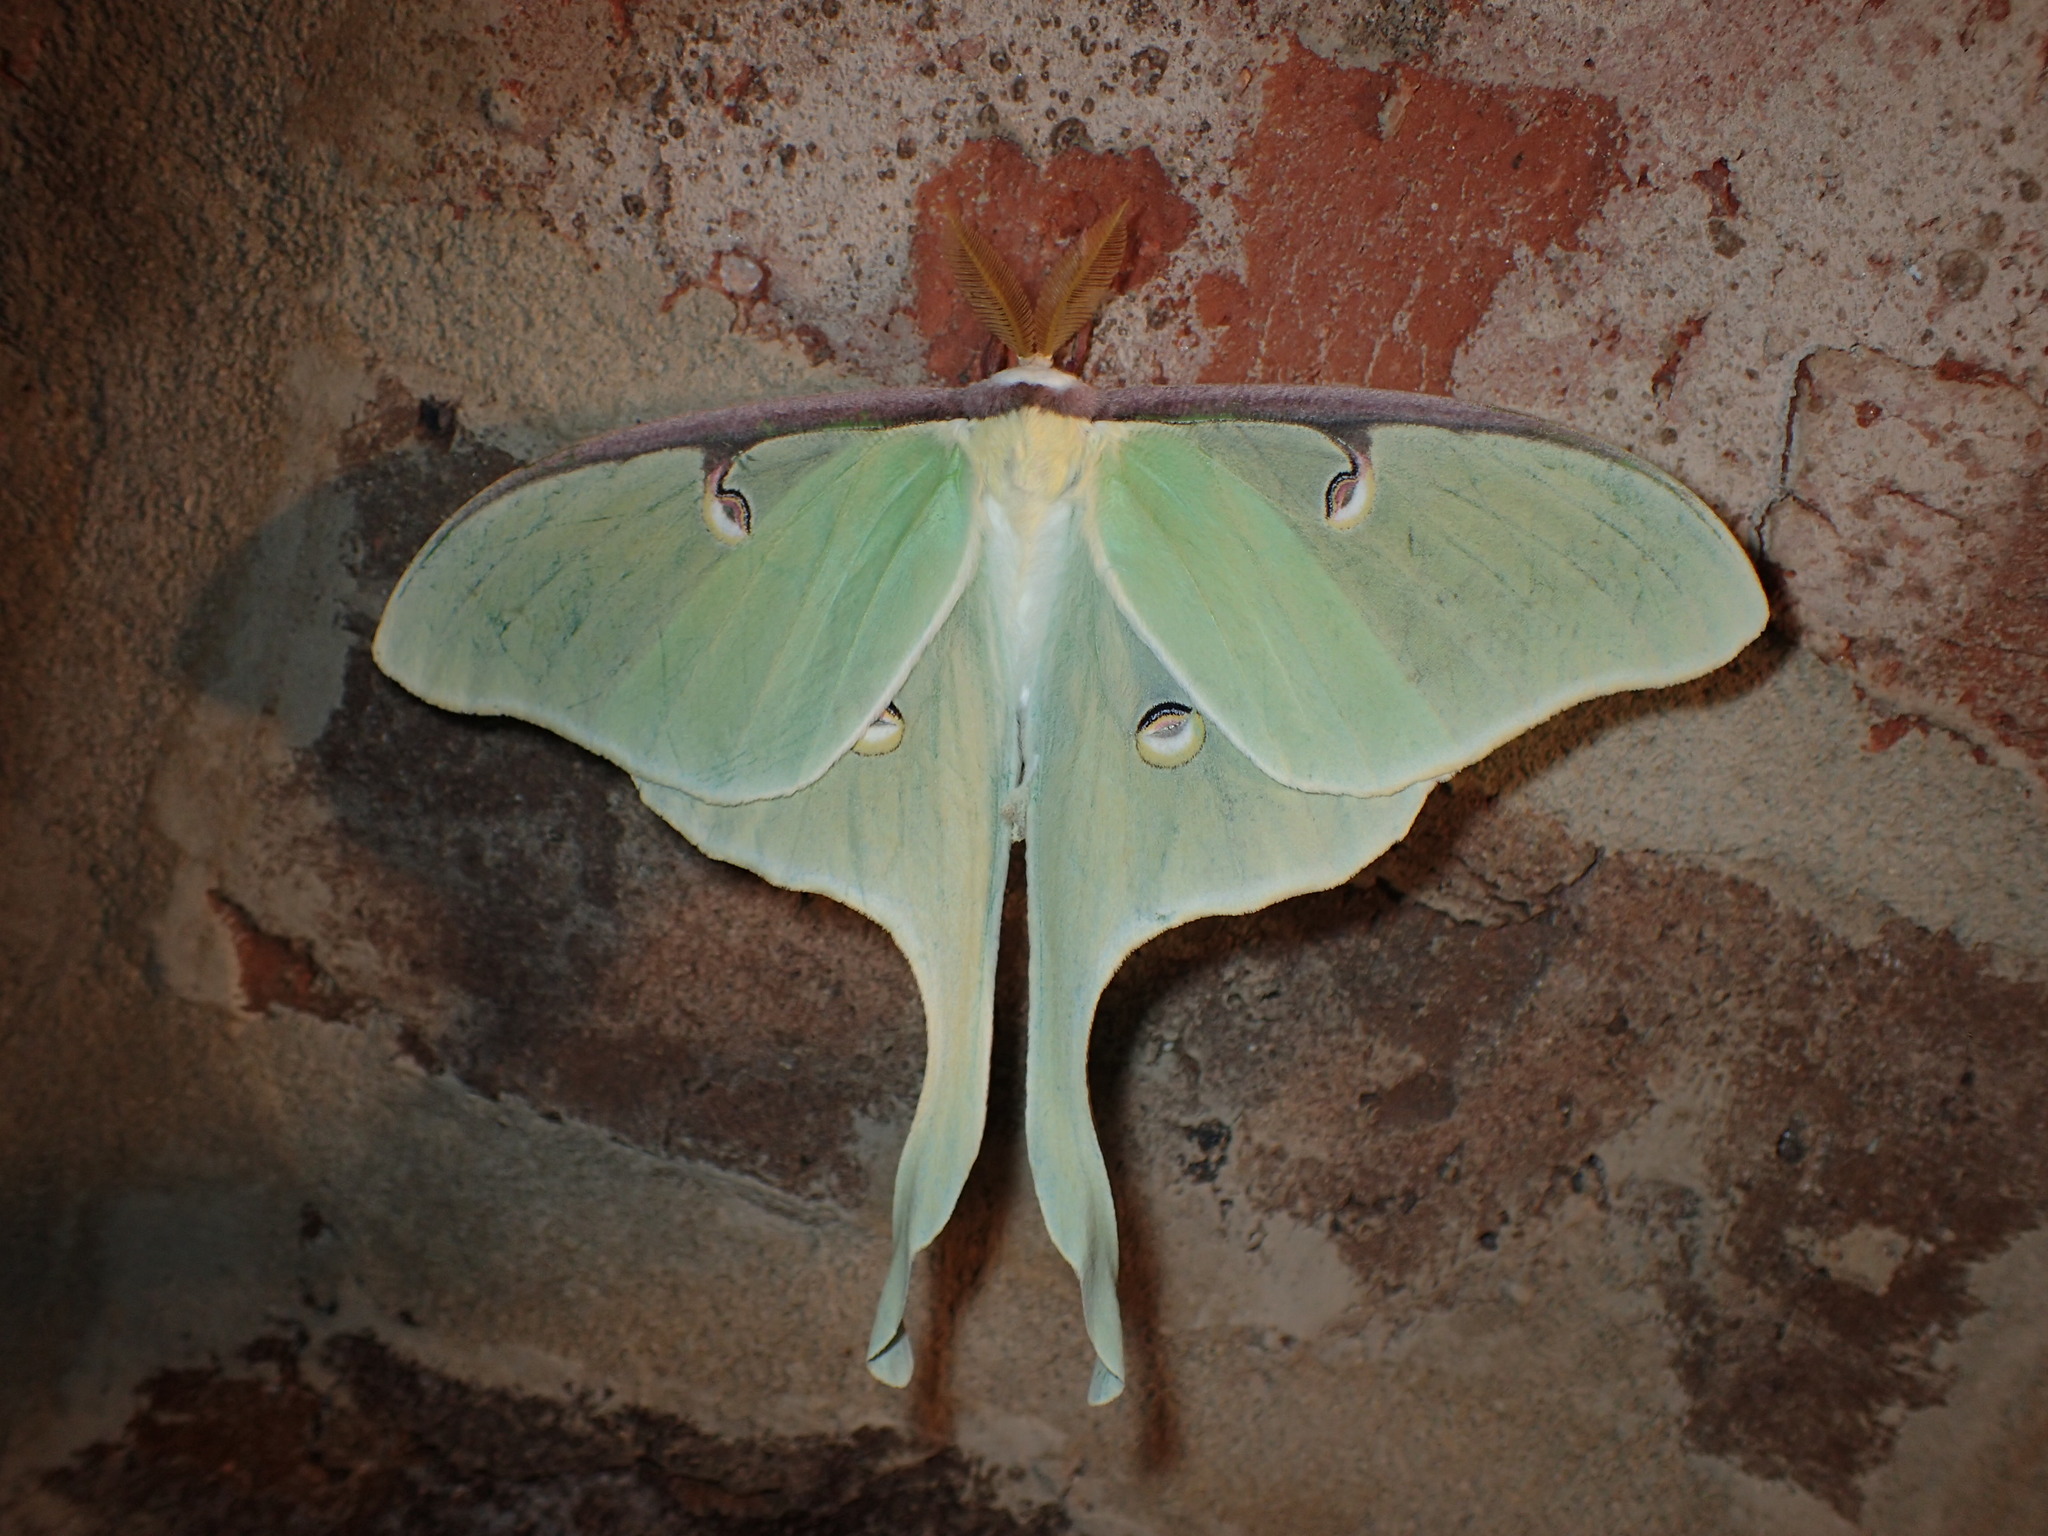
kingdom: Animalia
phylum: Arthropoda
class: Insecta
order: Lepidoptera
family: Saturniidae
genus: Actias
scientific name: Actias luna
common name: Luna moth
